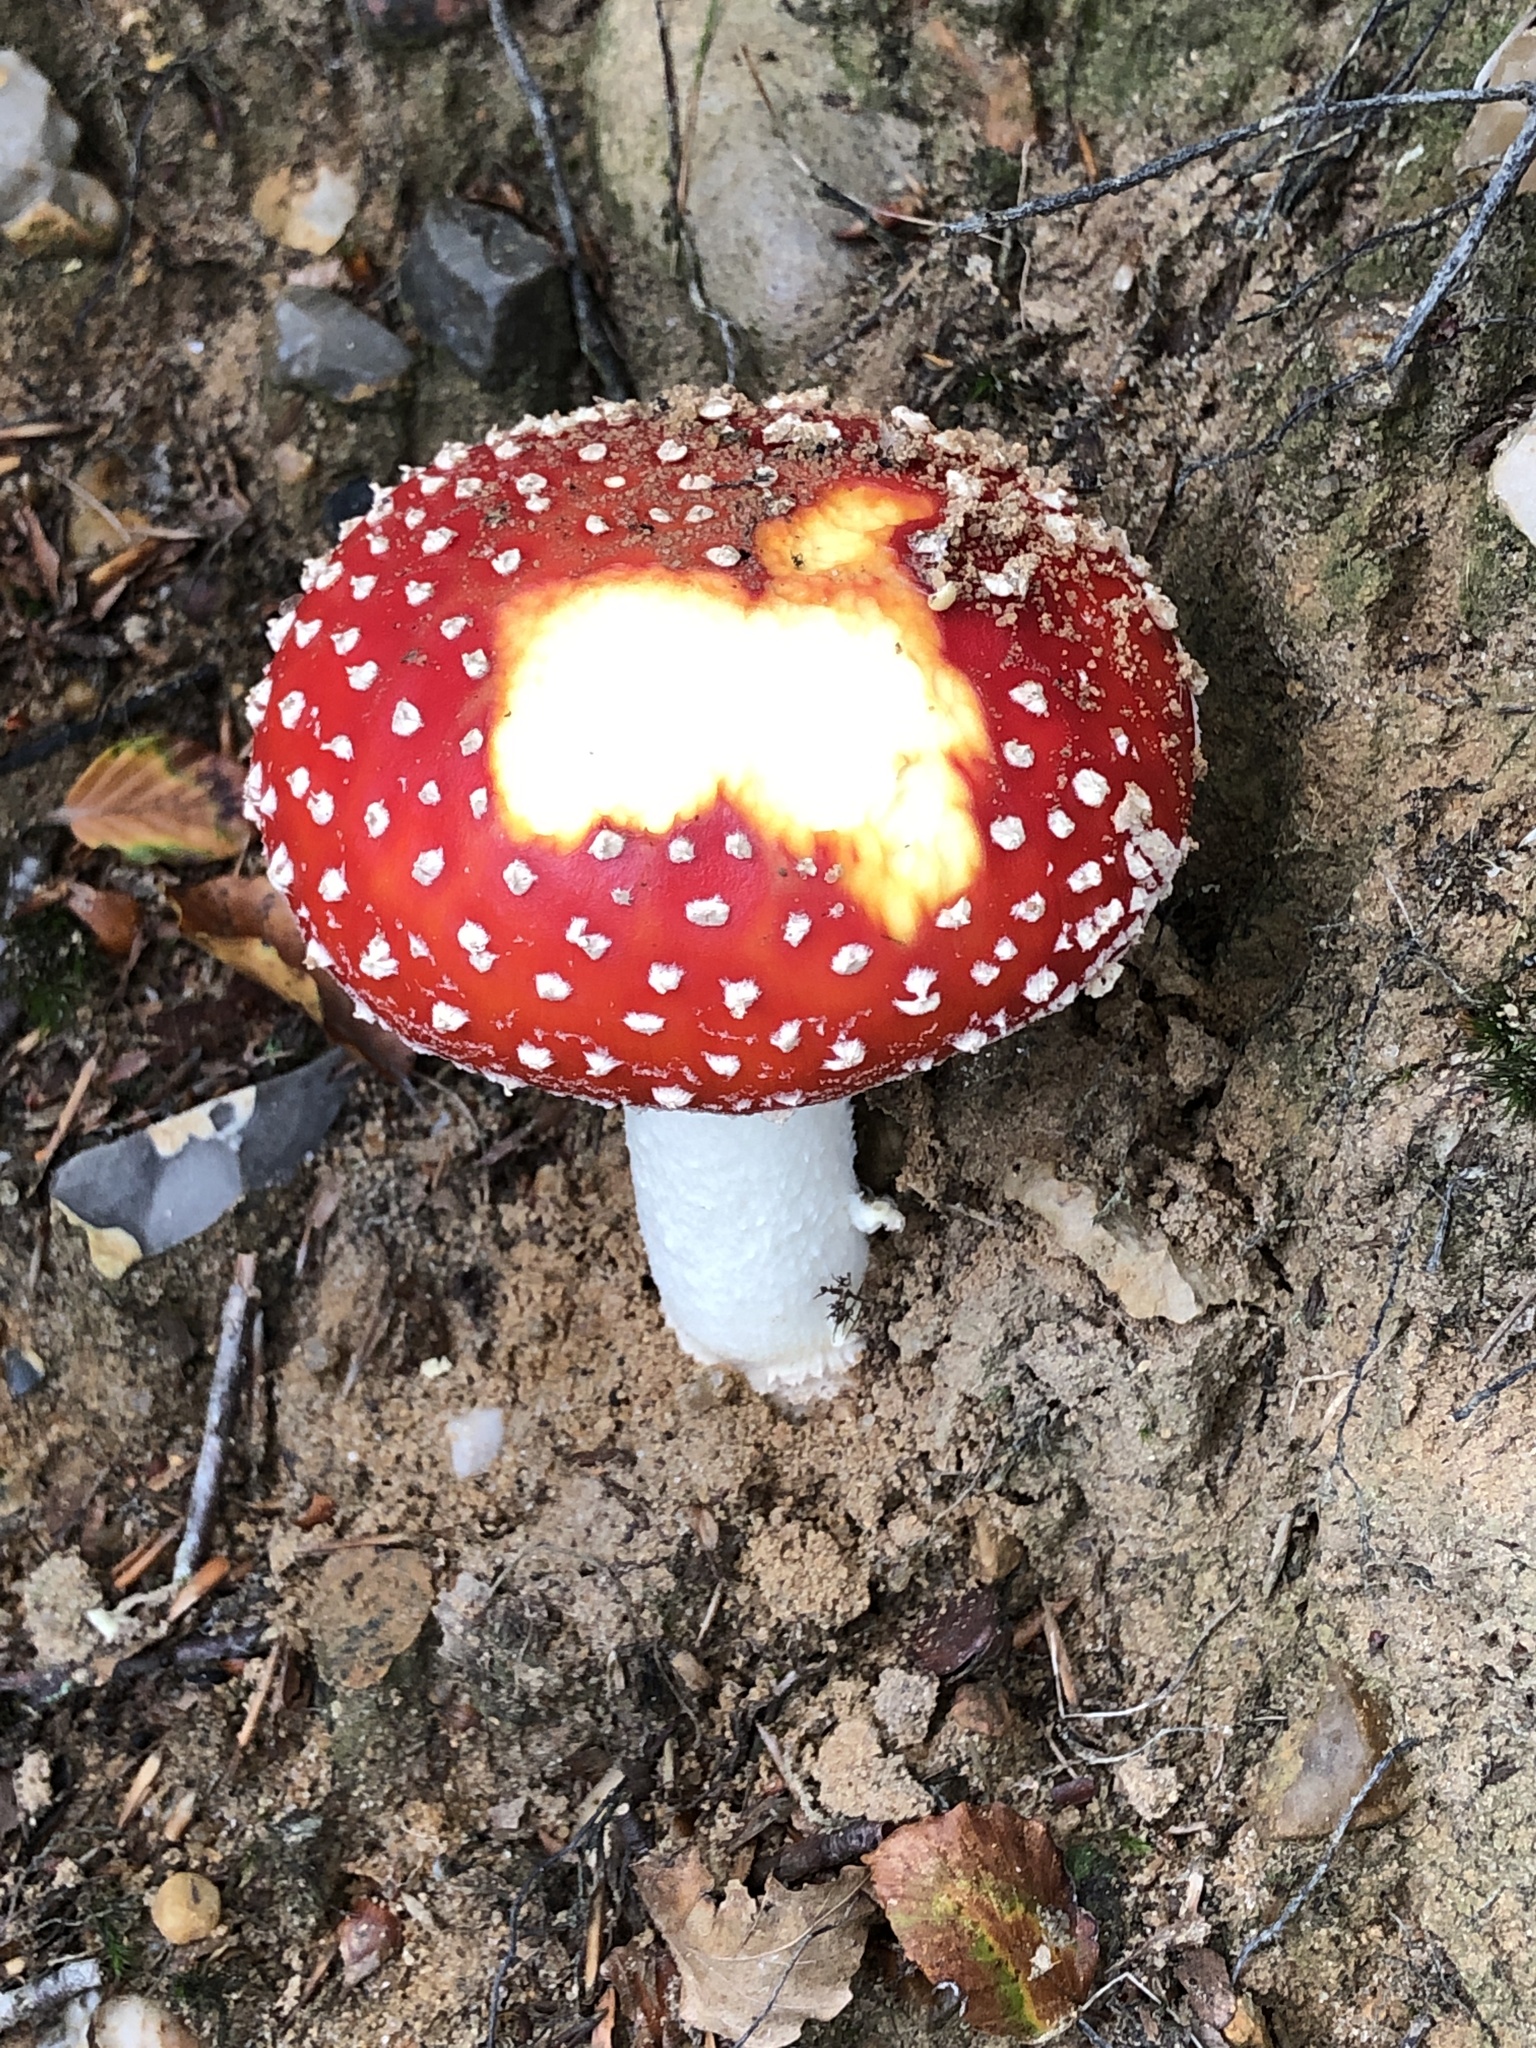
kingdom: Fungi
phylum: Basidiomycota
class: Agaricomycetes
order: Agaricales
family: Amanitaceae
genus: Amanita
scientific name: Amanita muscaria
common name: Fly agaric
